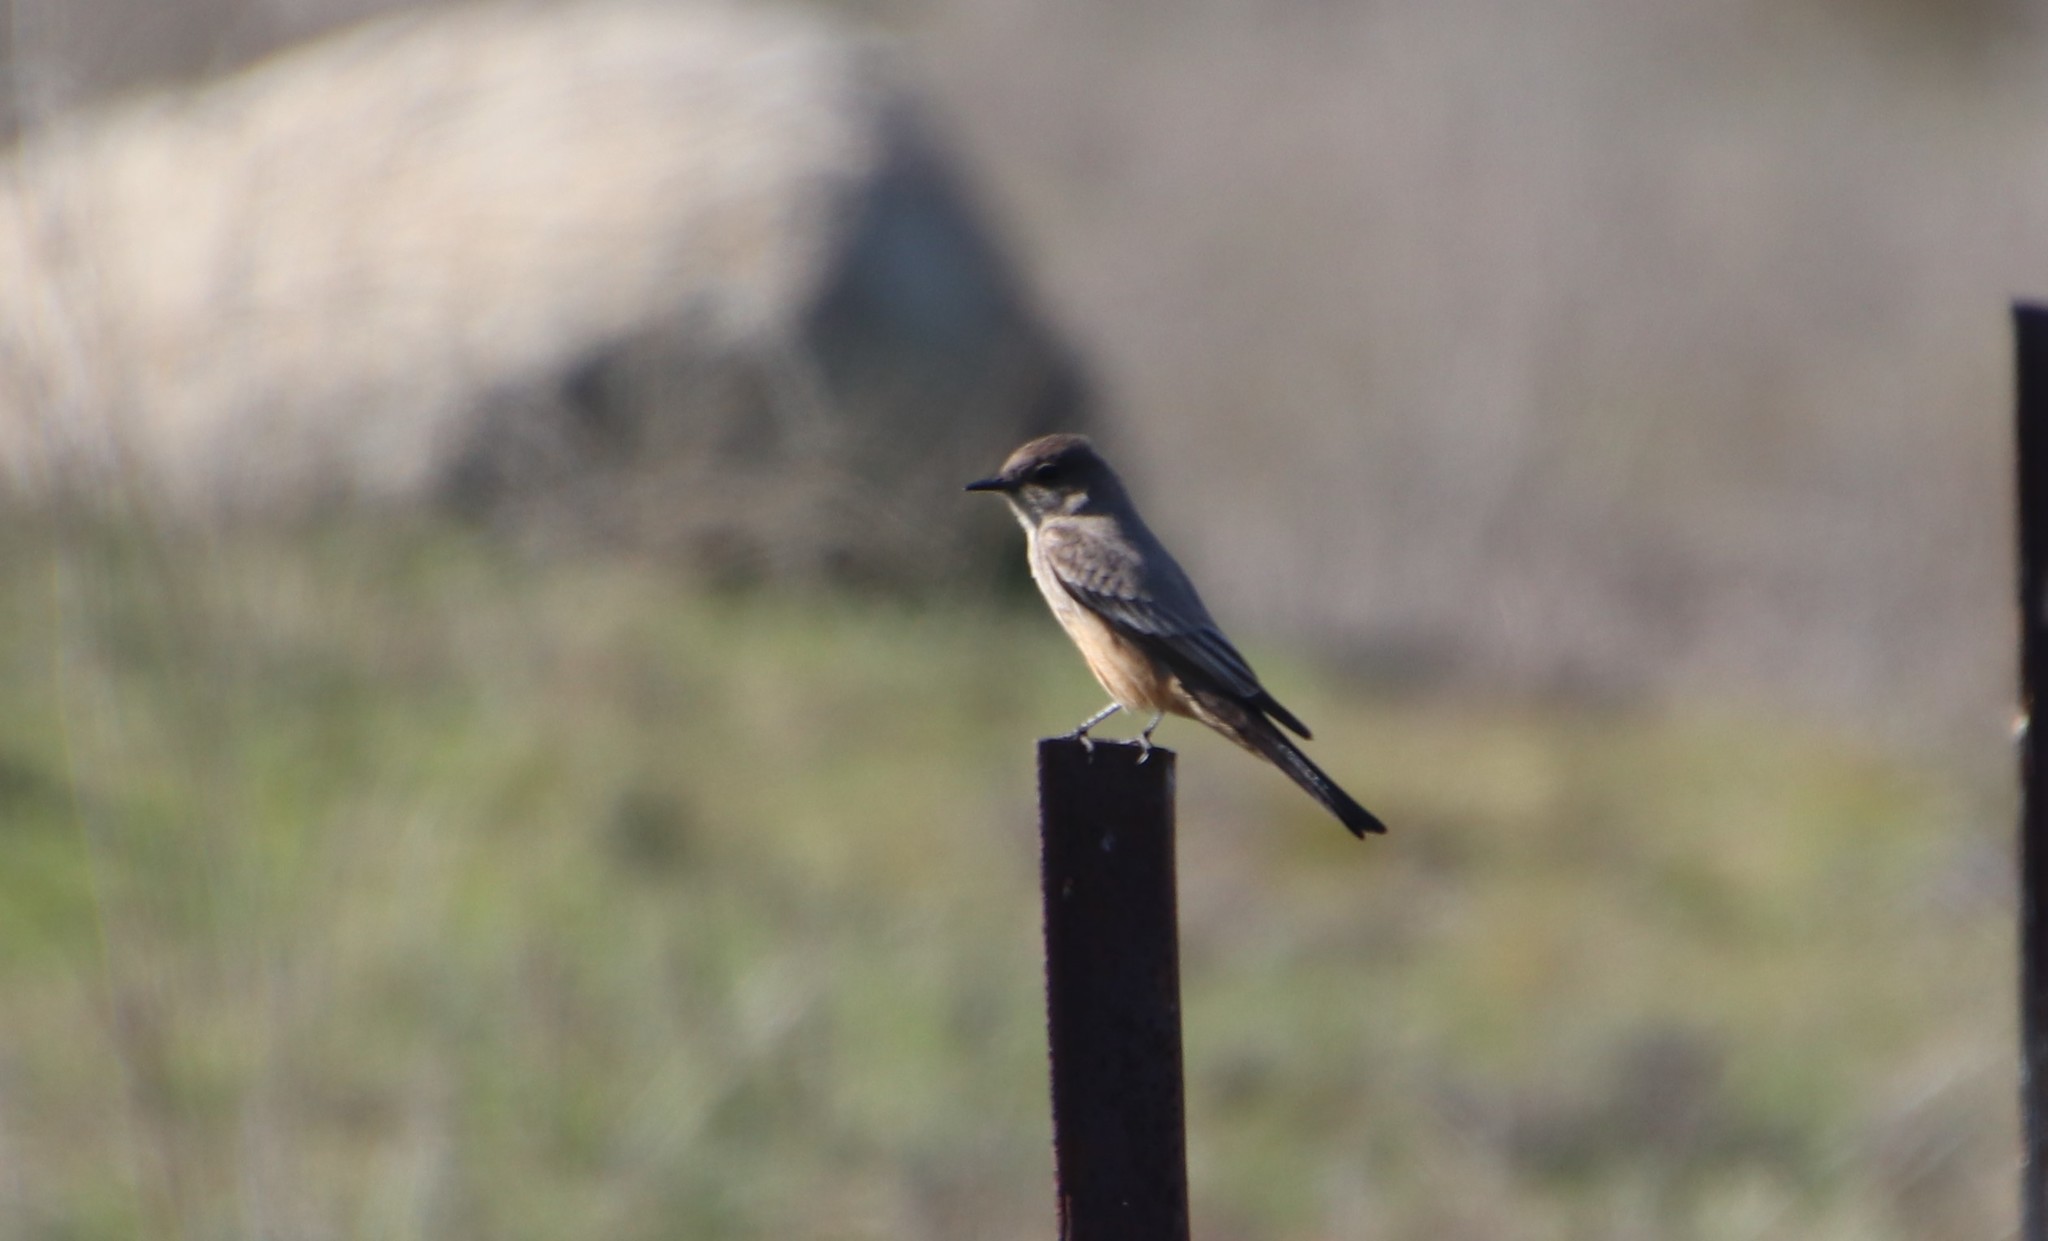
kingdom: Animalia
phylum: Chordata
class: Aves
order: Passeriformes
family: Tyrannidae
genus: Sayornis
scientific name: Sayornis saya
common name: Say's phoebe
